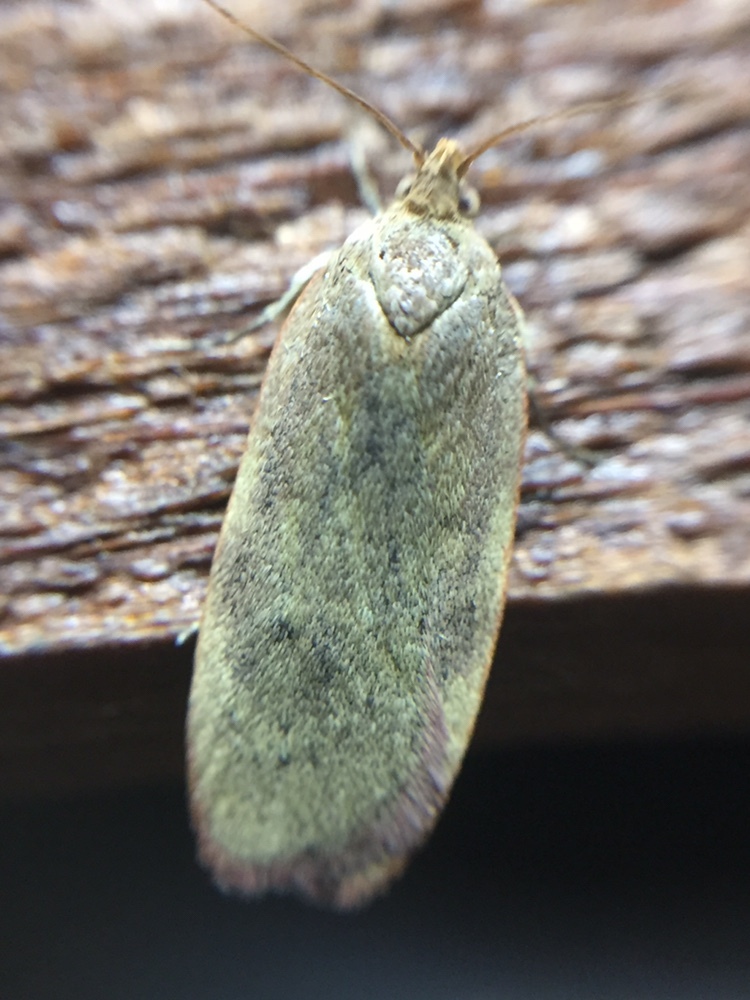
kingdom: Animalia
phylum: Arthropoda
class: Insecta
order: Lepidoptera
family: Depressariidae
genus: Phaeosaces
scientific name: Phaeosaces coarctatella
